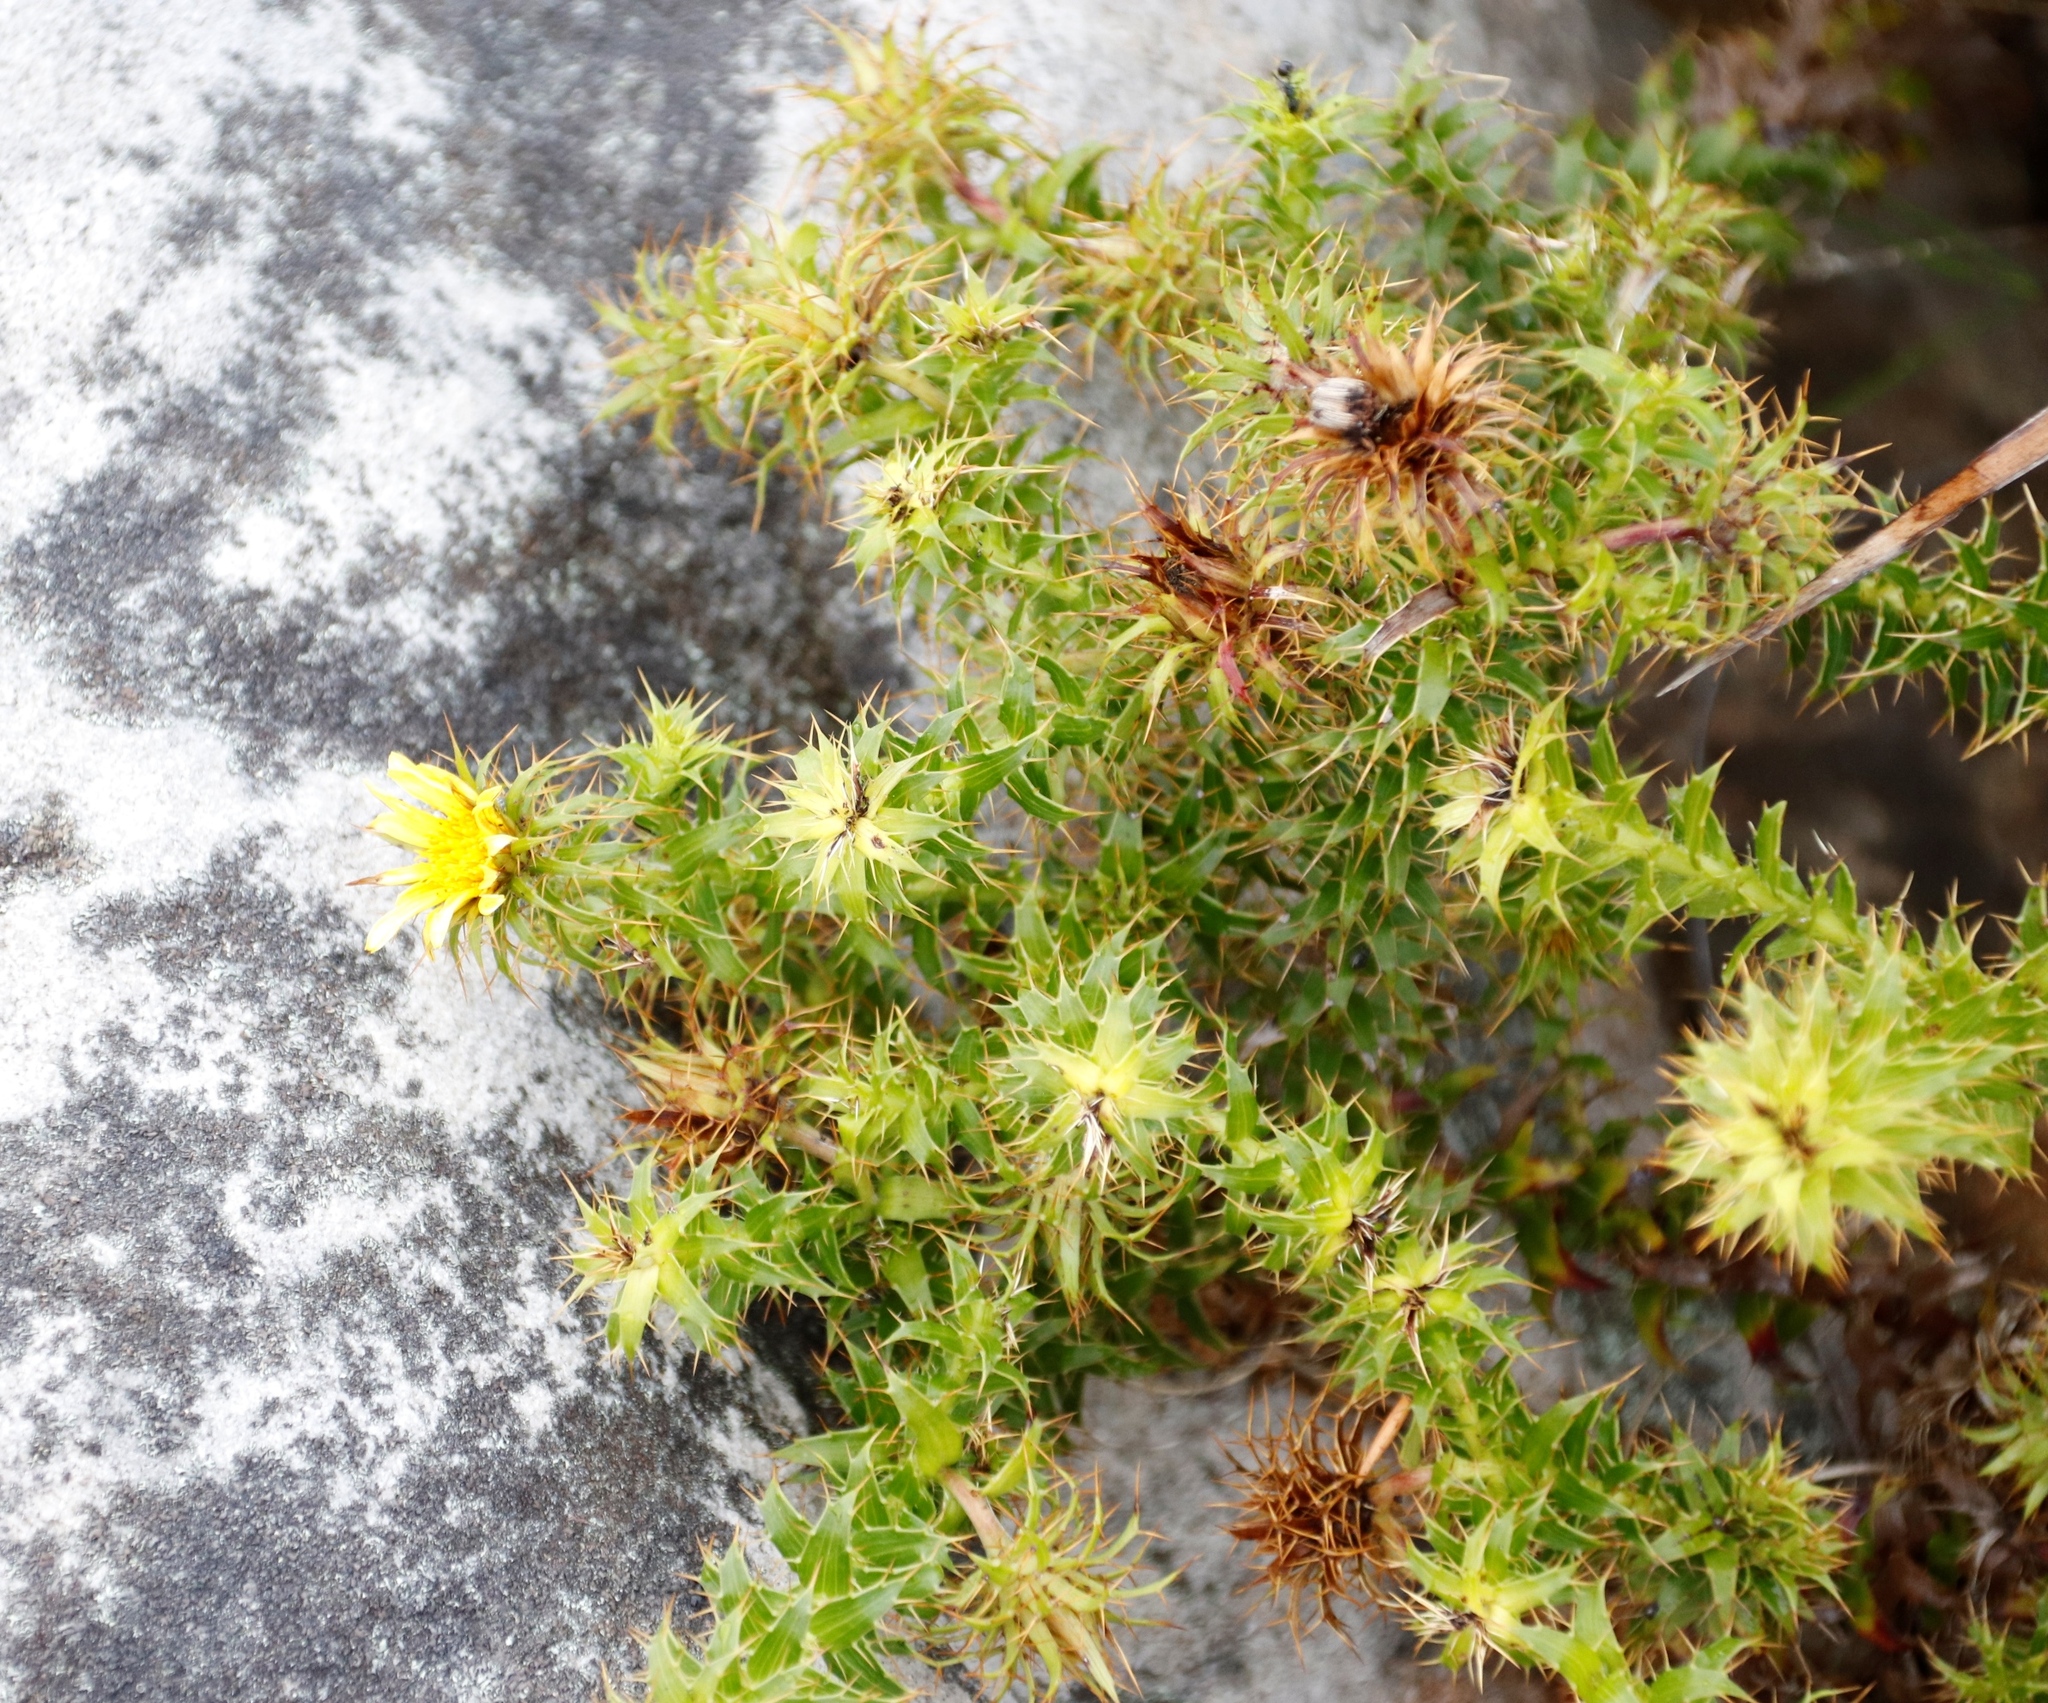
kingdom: Plantae
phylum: Tracheophyta
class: Magnoliopsida
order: Asterales
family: Asteraceae
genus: Cullumia
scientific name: Cullumia setosa
